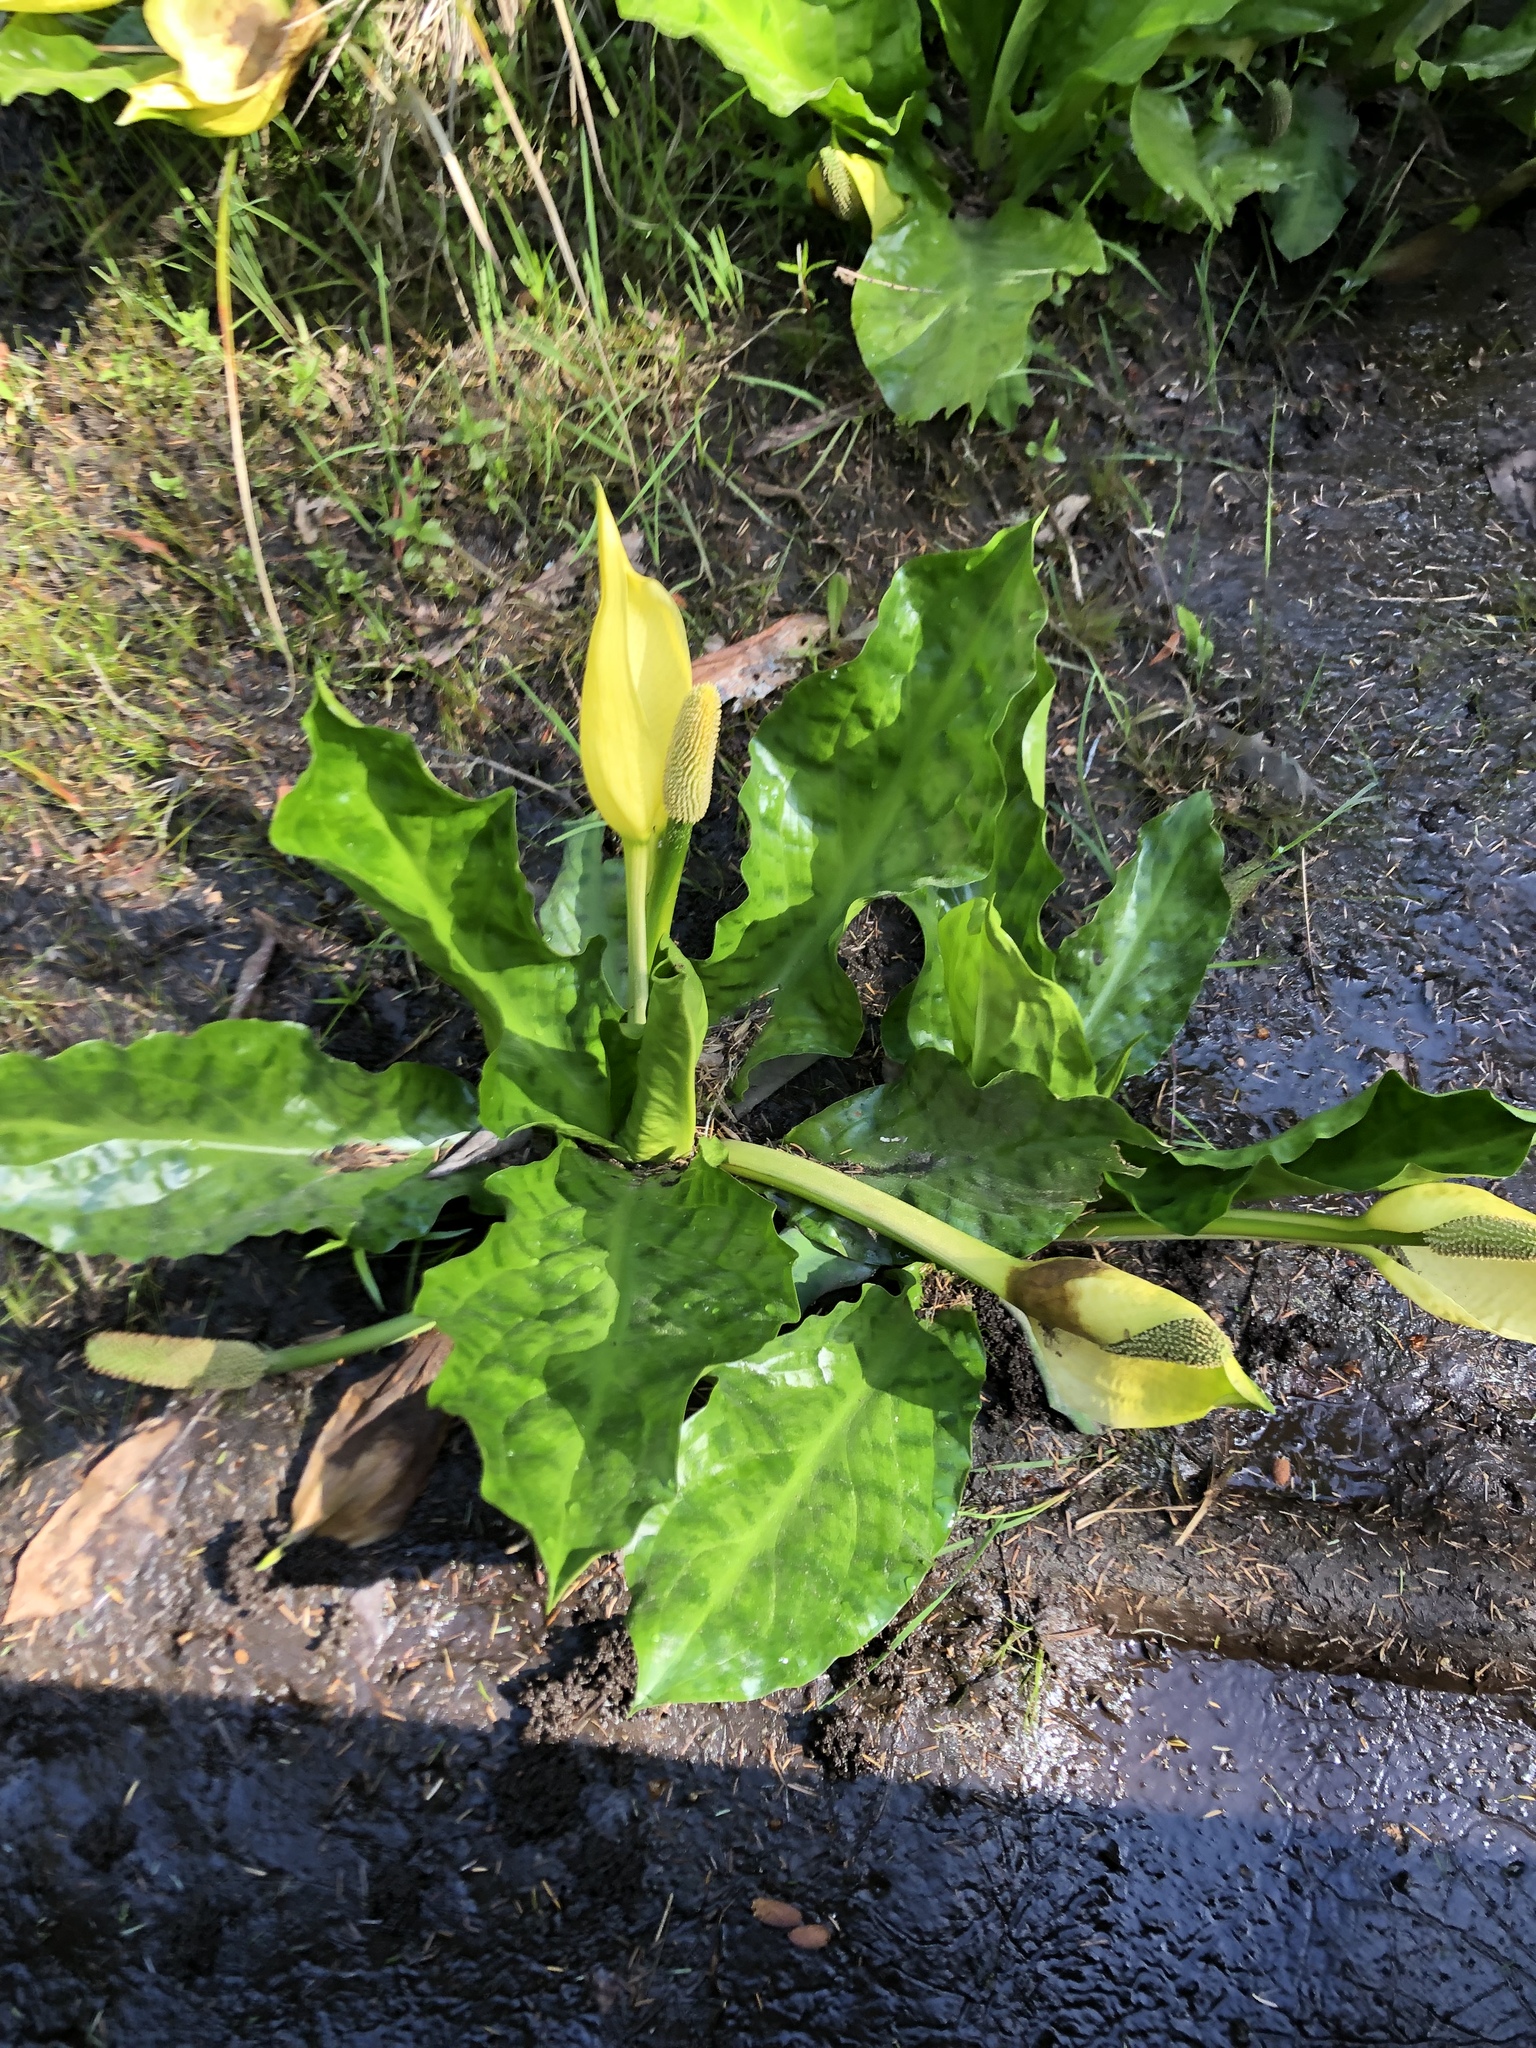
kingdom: Plantae
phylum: Tracheophyta
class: Liliopsida
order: Alismatales
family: Araceae
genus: Lysichiton
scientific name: Lysichiton americanus
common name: American skunk cabbage
